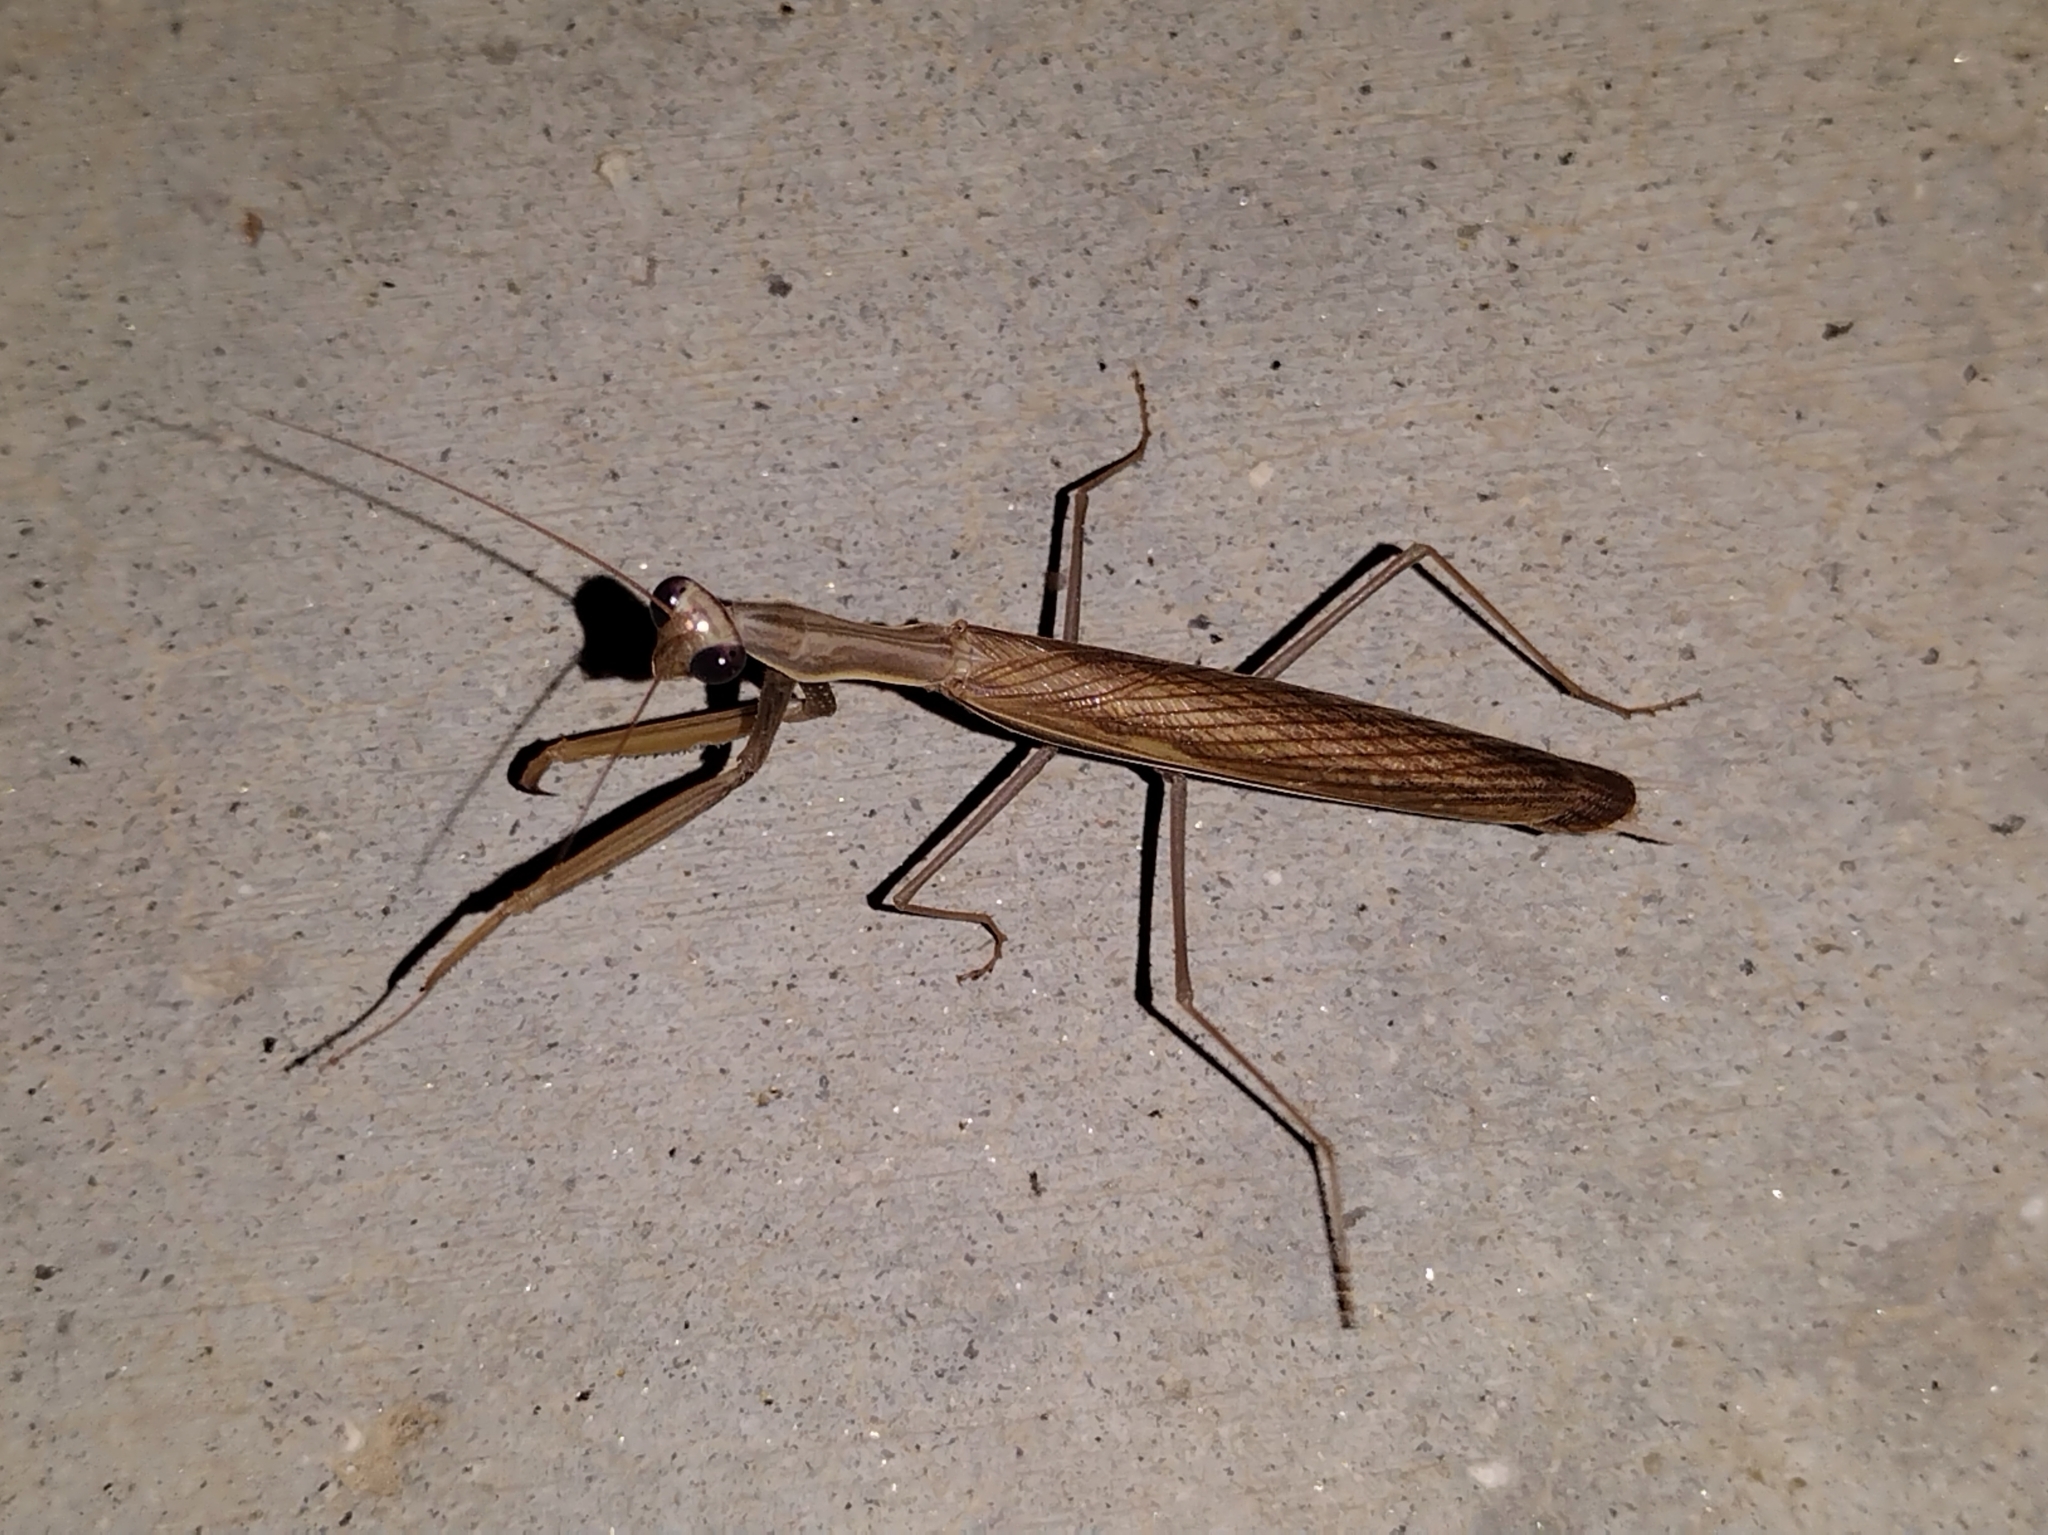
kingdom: Animalia
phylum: Arthropoda
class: Insecta
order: Mantodea
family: Mantidae
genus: Mantis
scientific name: Mantis religiosa
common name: Praying mantis
